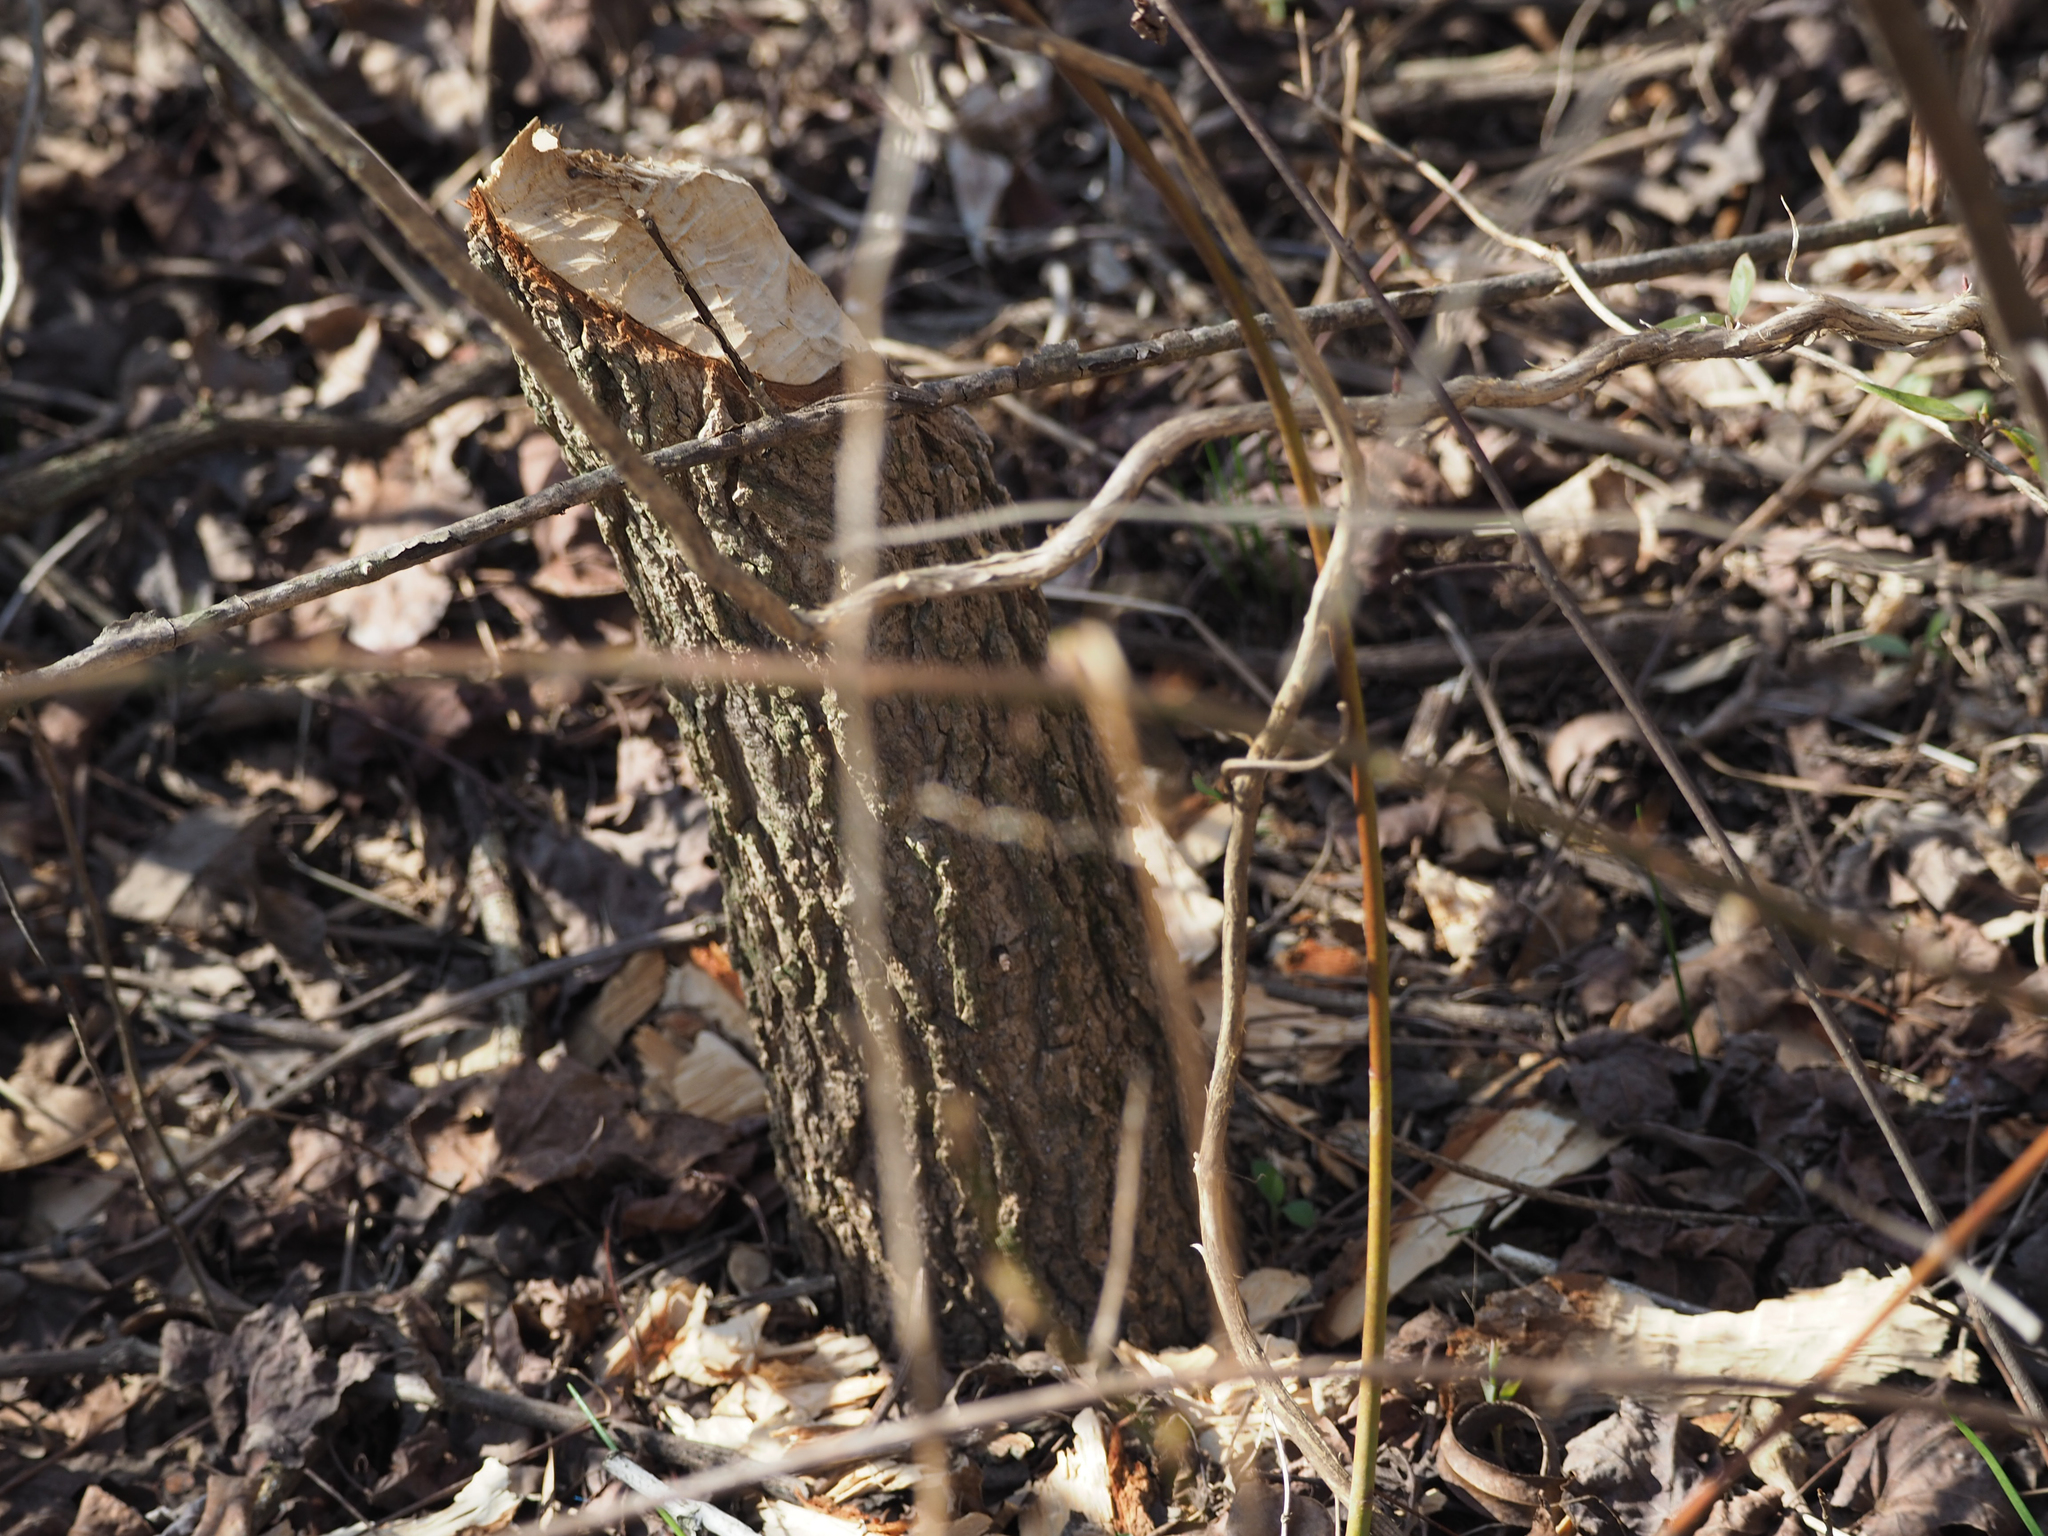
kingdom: Animalia
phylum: Chordata
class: Mammalia
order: Rodentia
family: Castoridae
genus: Castor
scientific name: Castor canadensis
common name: American beaver
